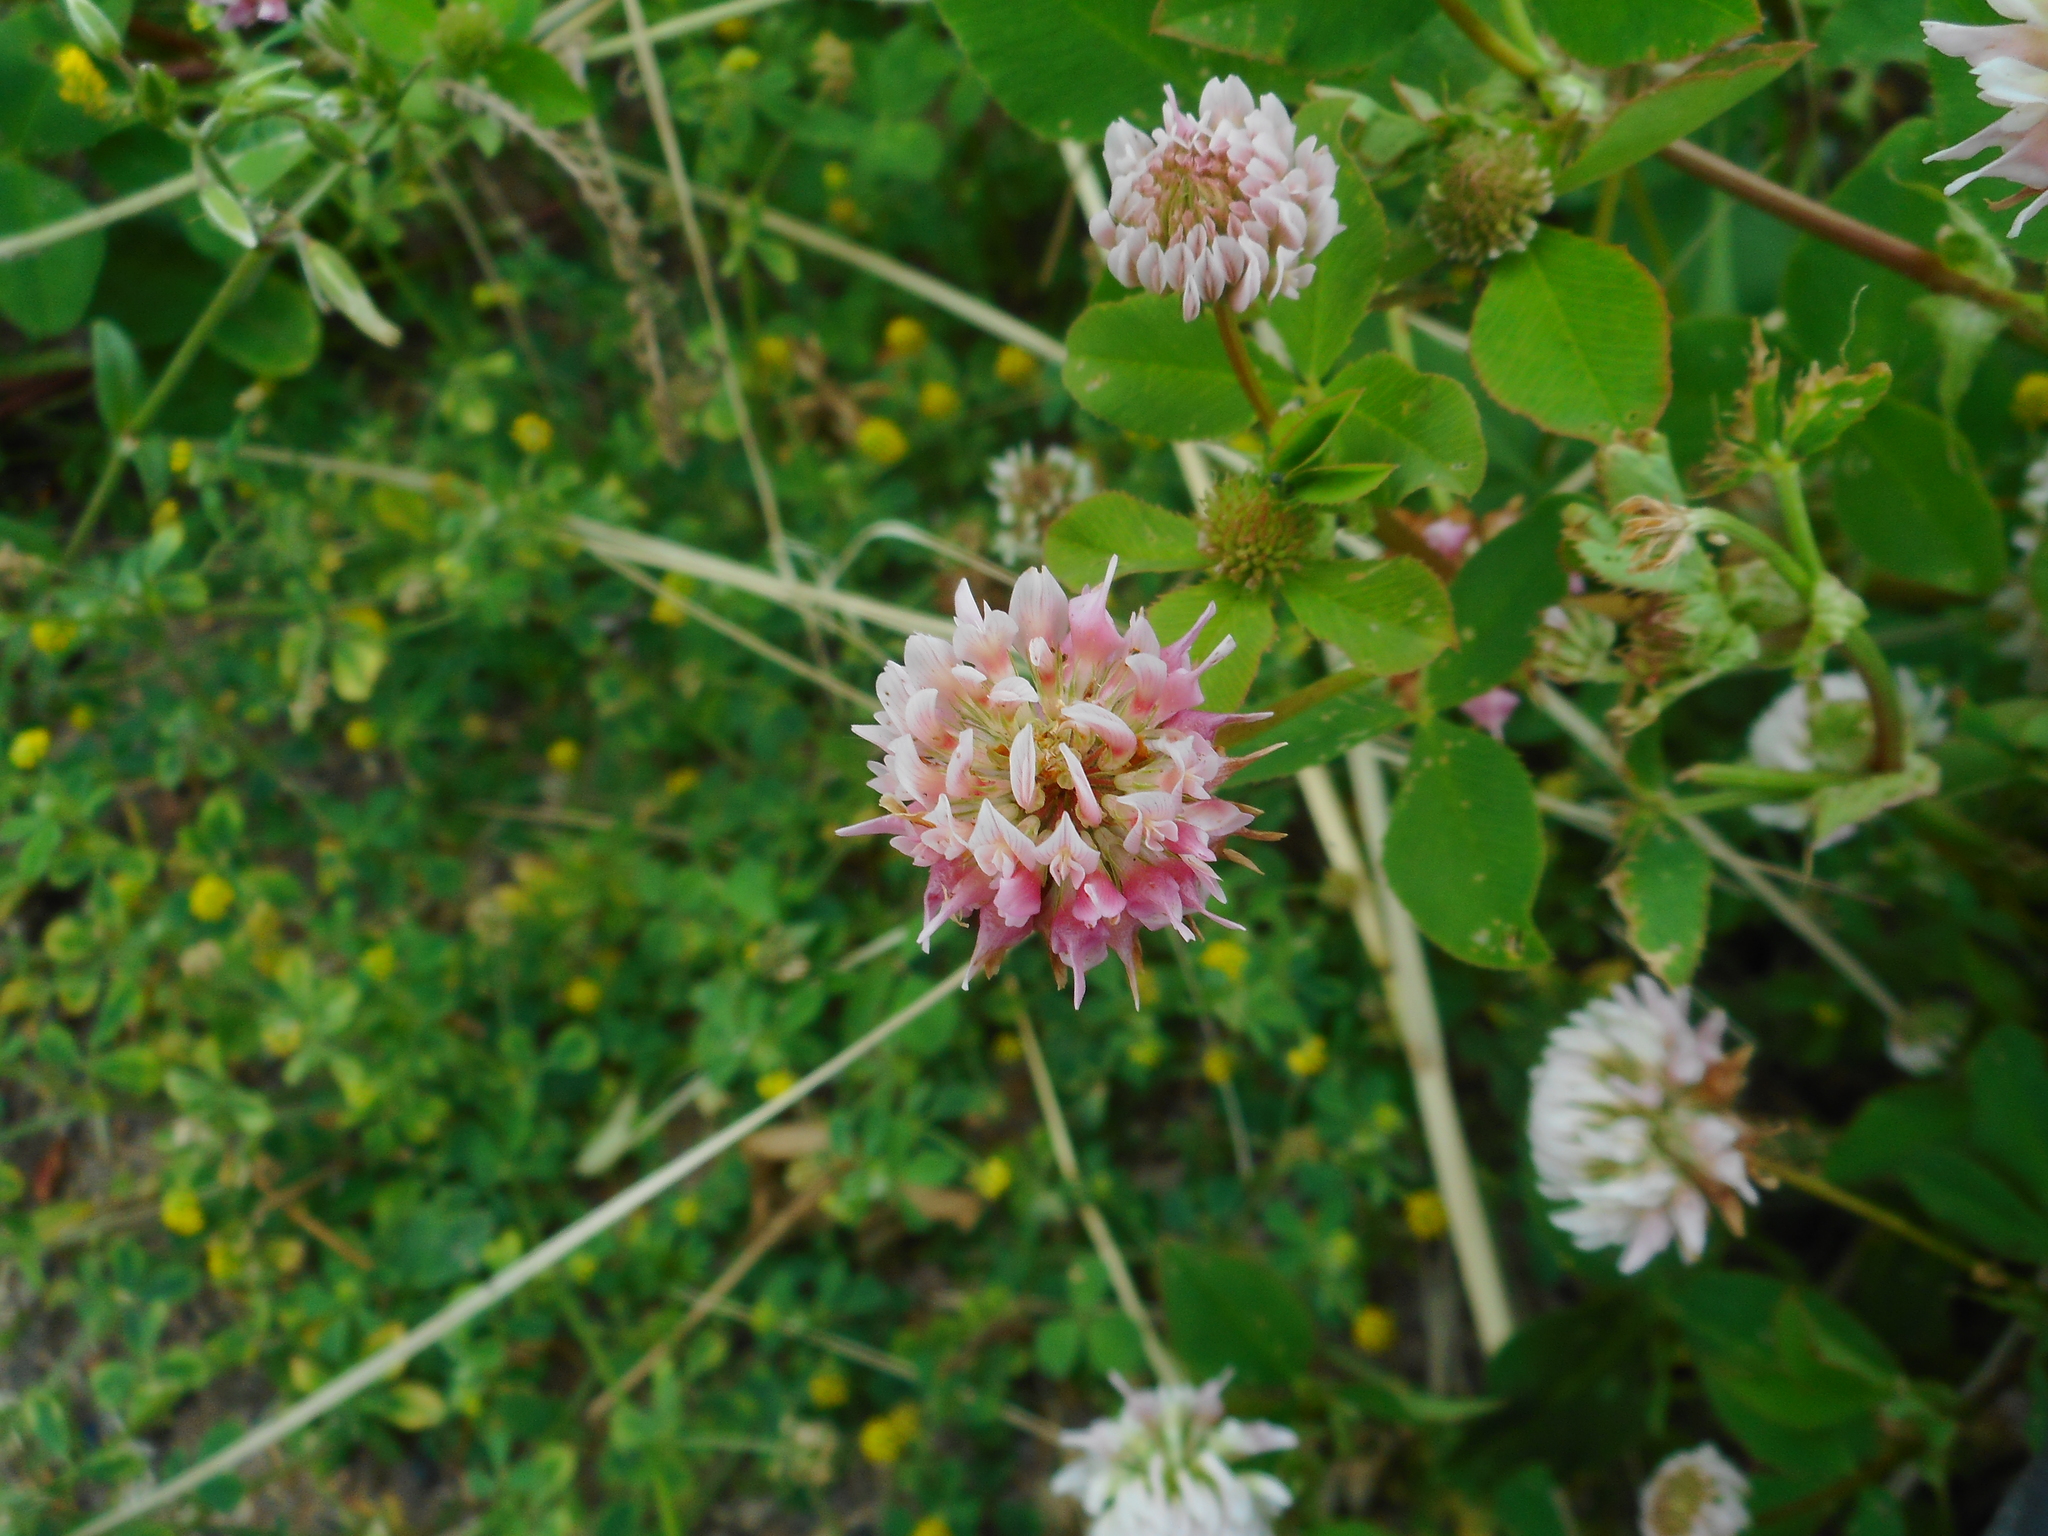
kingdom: Plantae
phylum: Tracheophyta
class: Magnoliopsida
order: Fabales
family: Fabaceae
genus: Trifolium
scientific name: Trifolium hybridum
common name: Alsike clover
